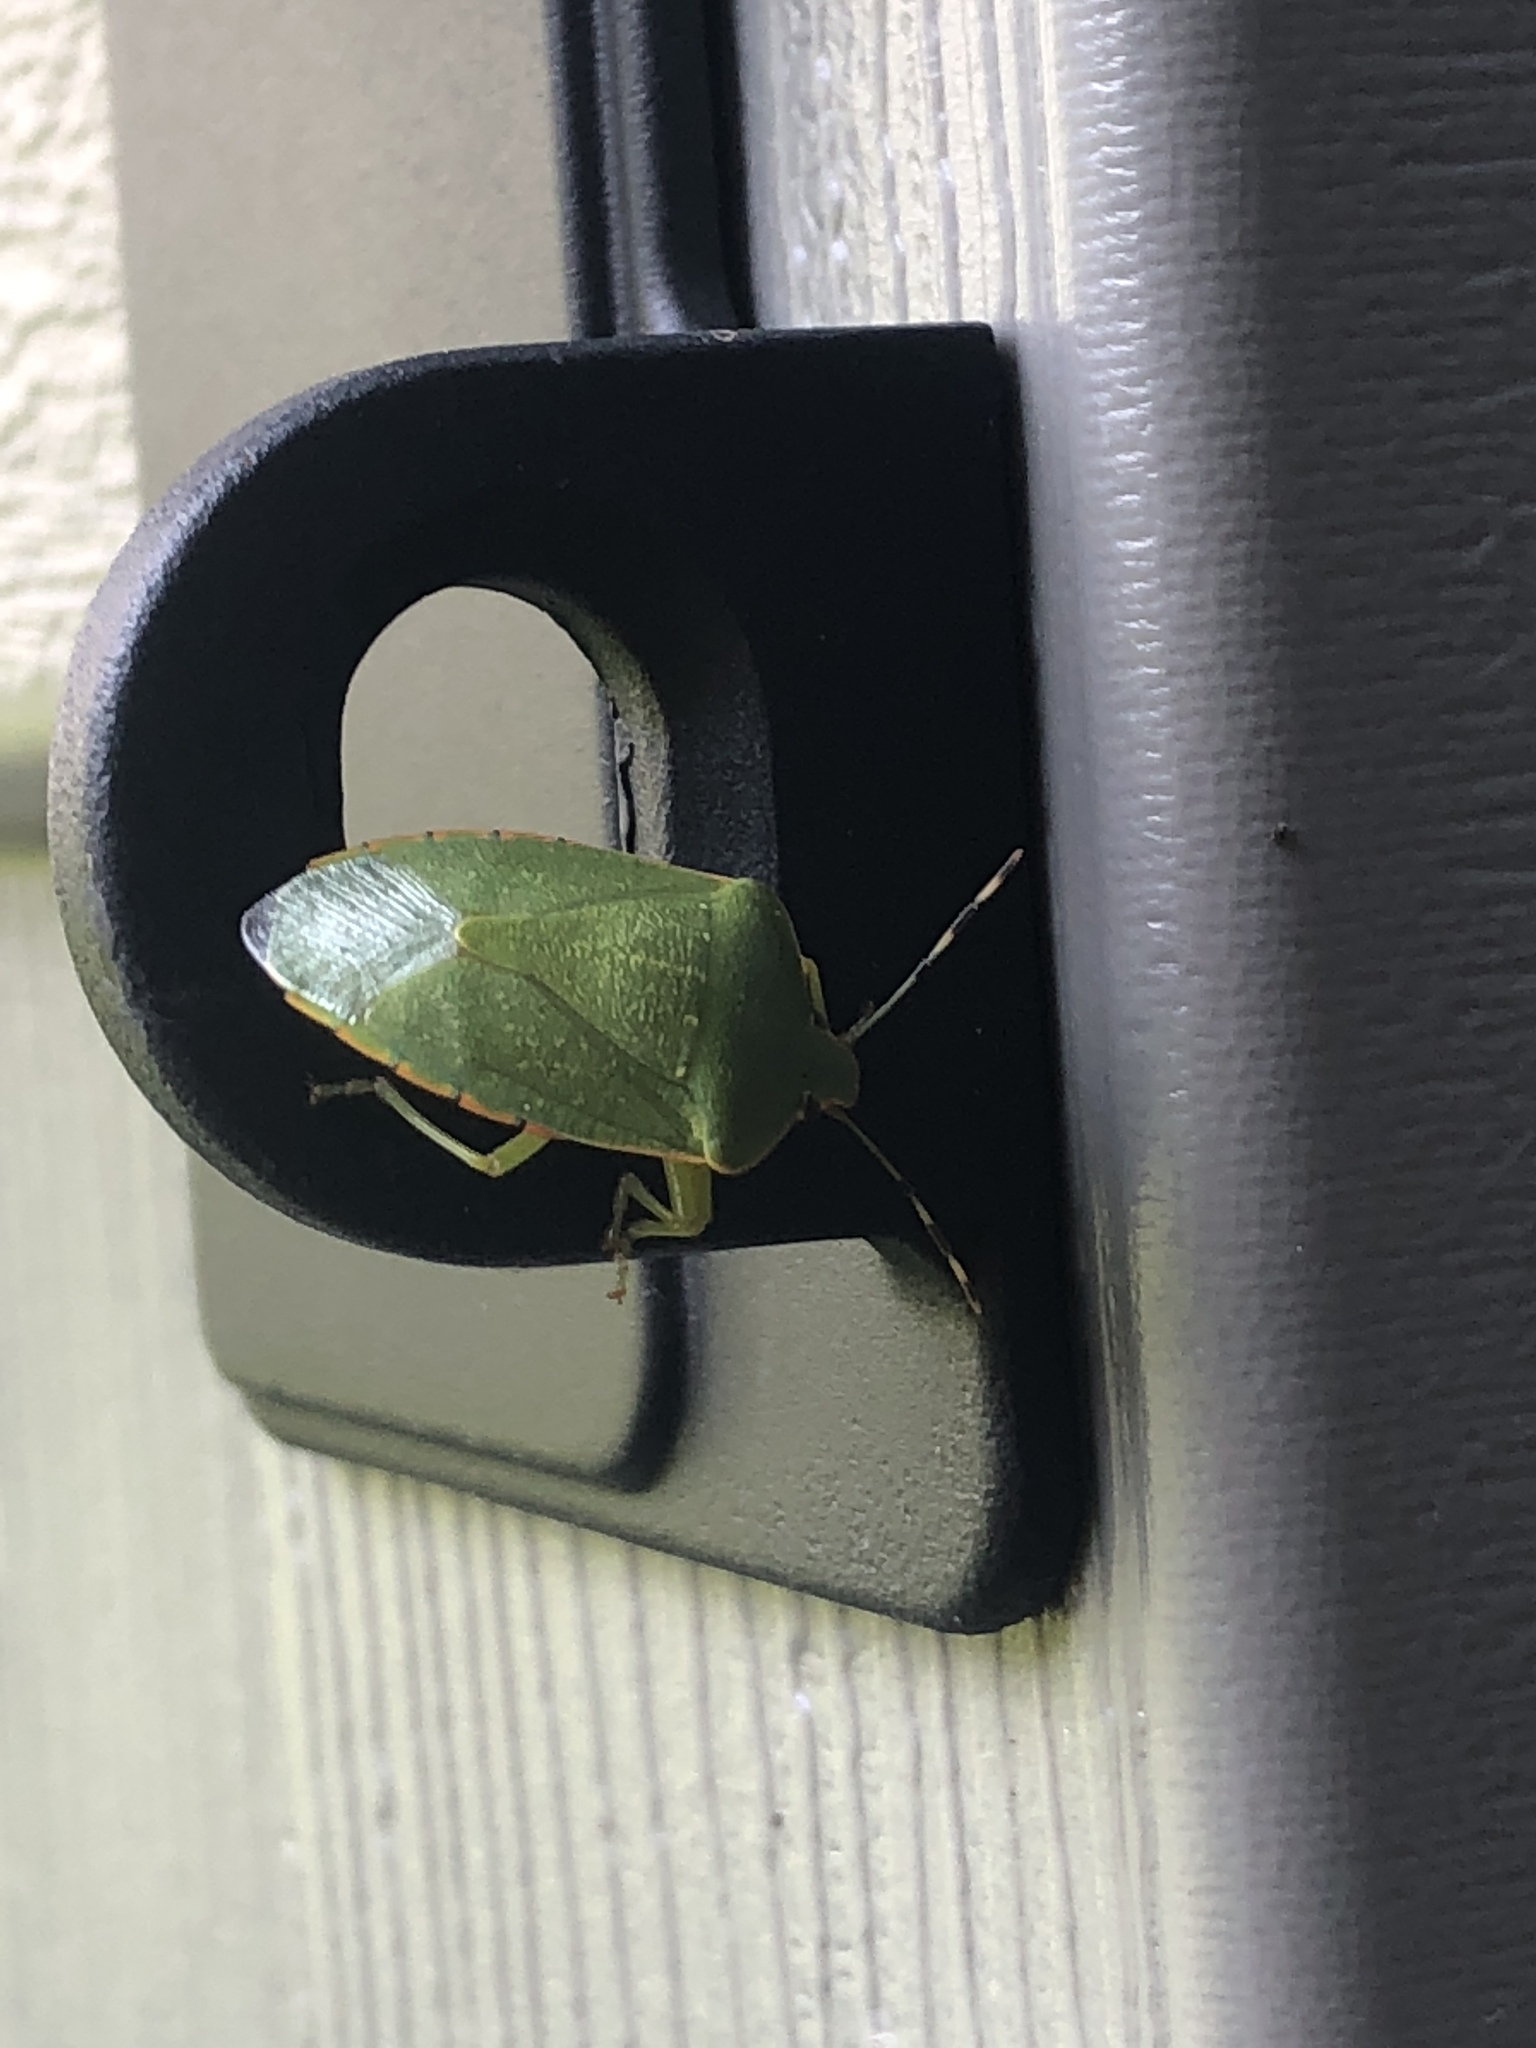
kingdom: Animalia
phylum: Arthropoda
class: Insecta
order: Hemiptera
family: Pentatomidae
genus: Chinavia
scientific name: Chinavia hilaris
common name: Green stink bug
